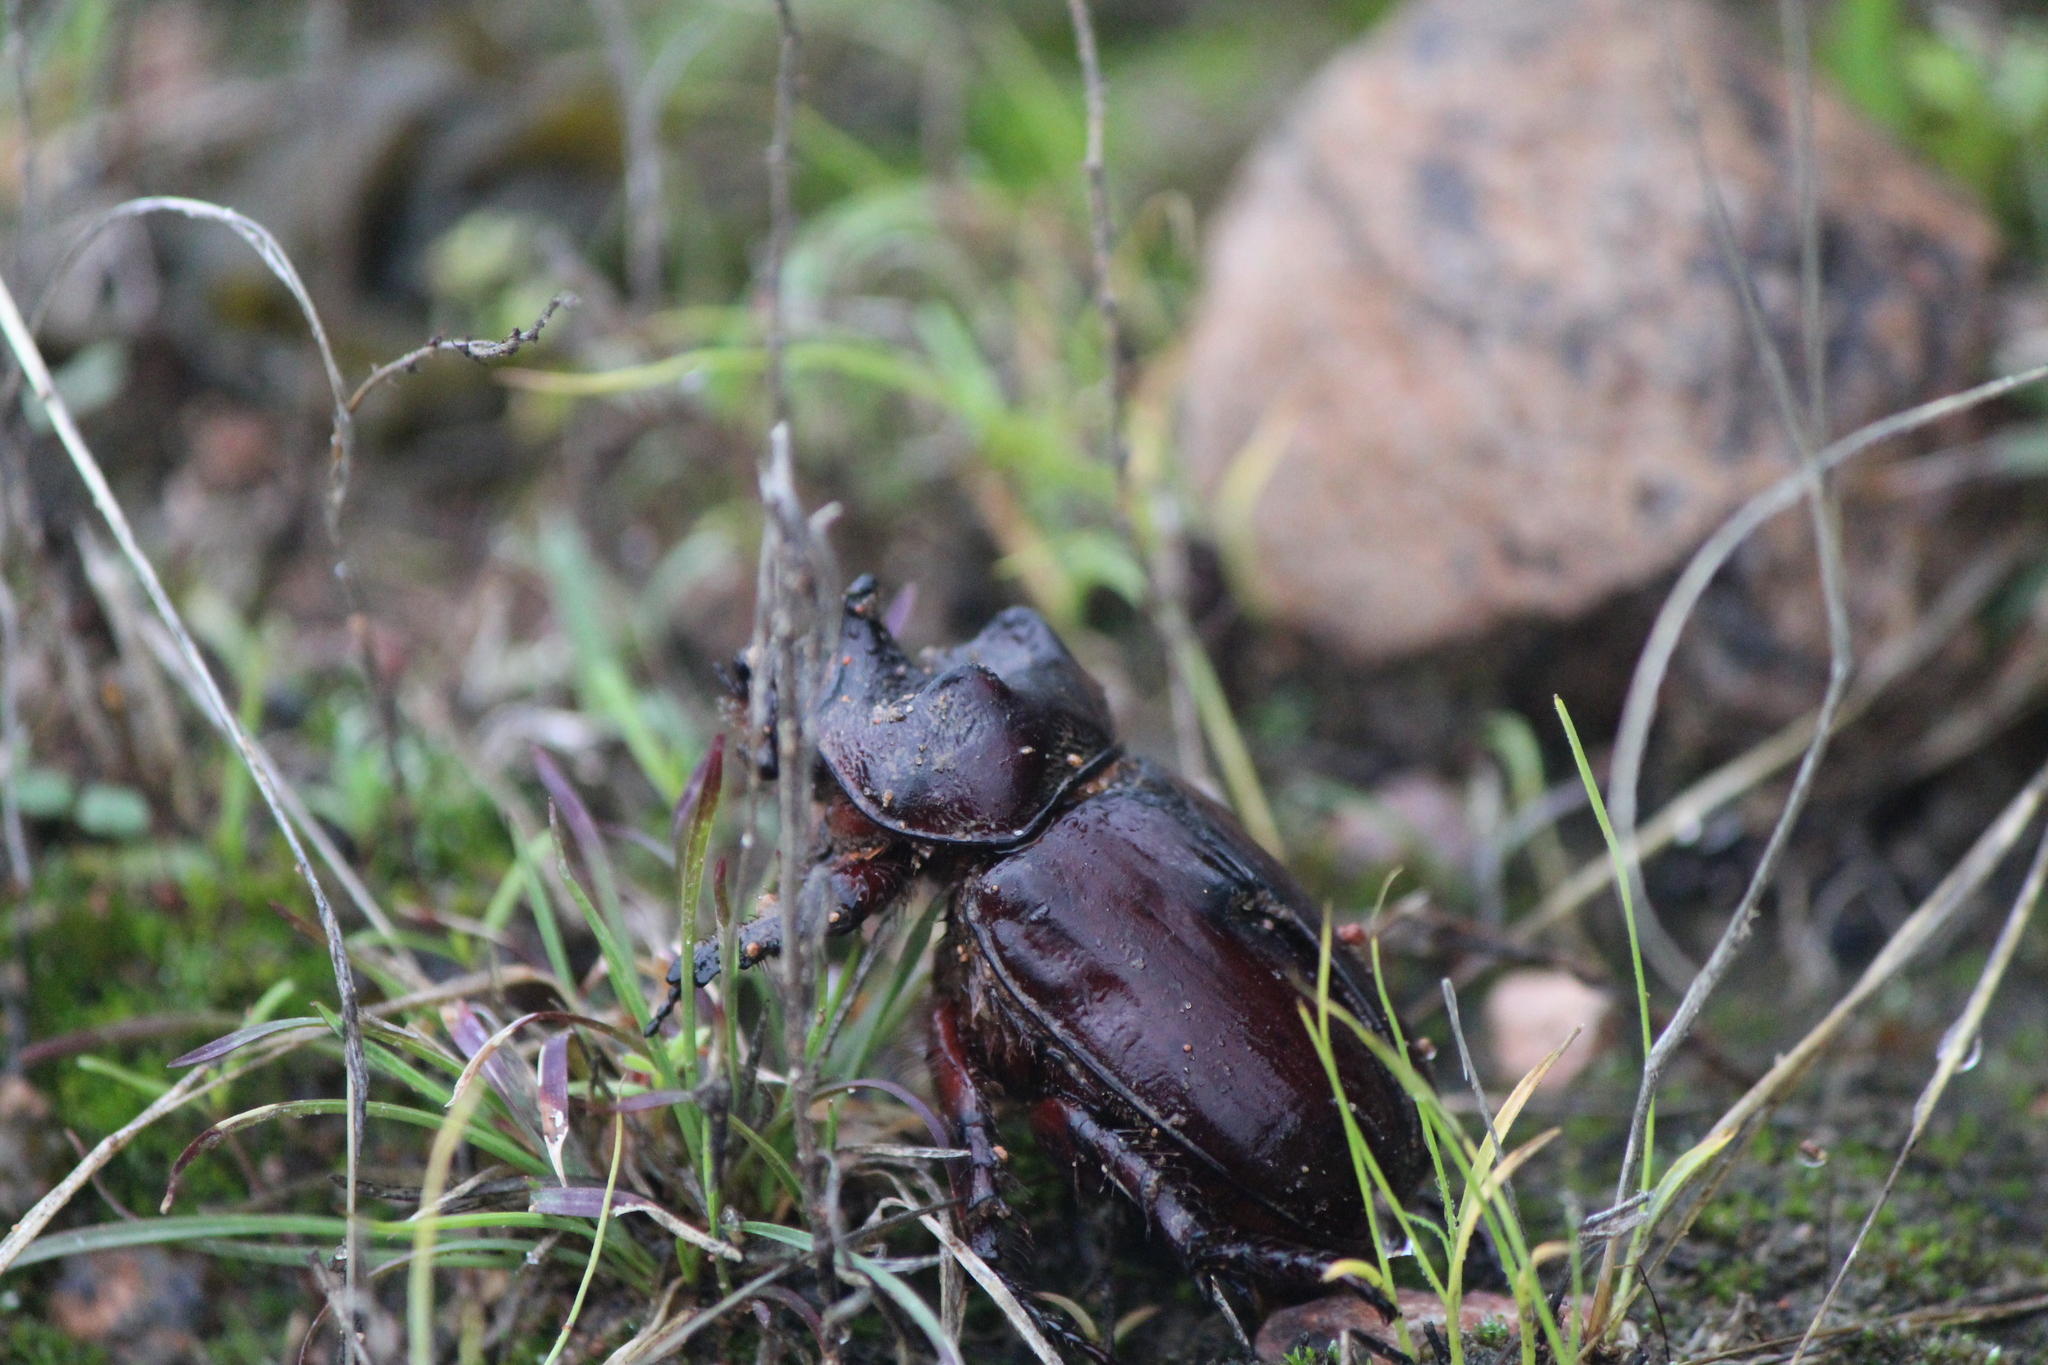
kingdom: Animalia
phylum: Arthropoda
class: Insecta
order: Coleoptera
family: Scarabaeidae
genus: Strategus
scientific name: Strategus aloeus
